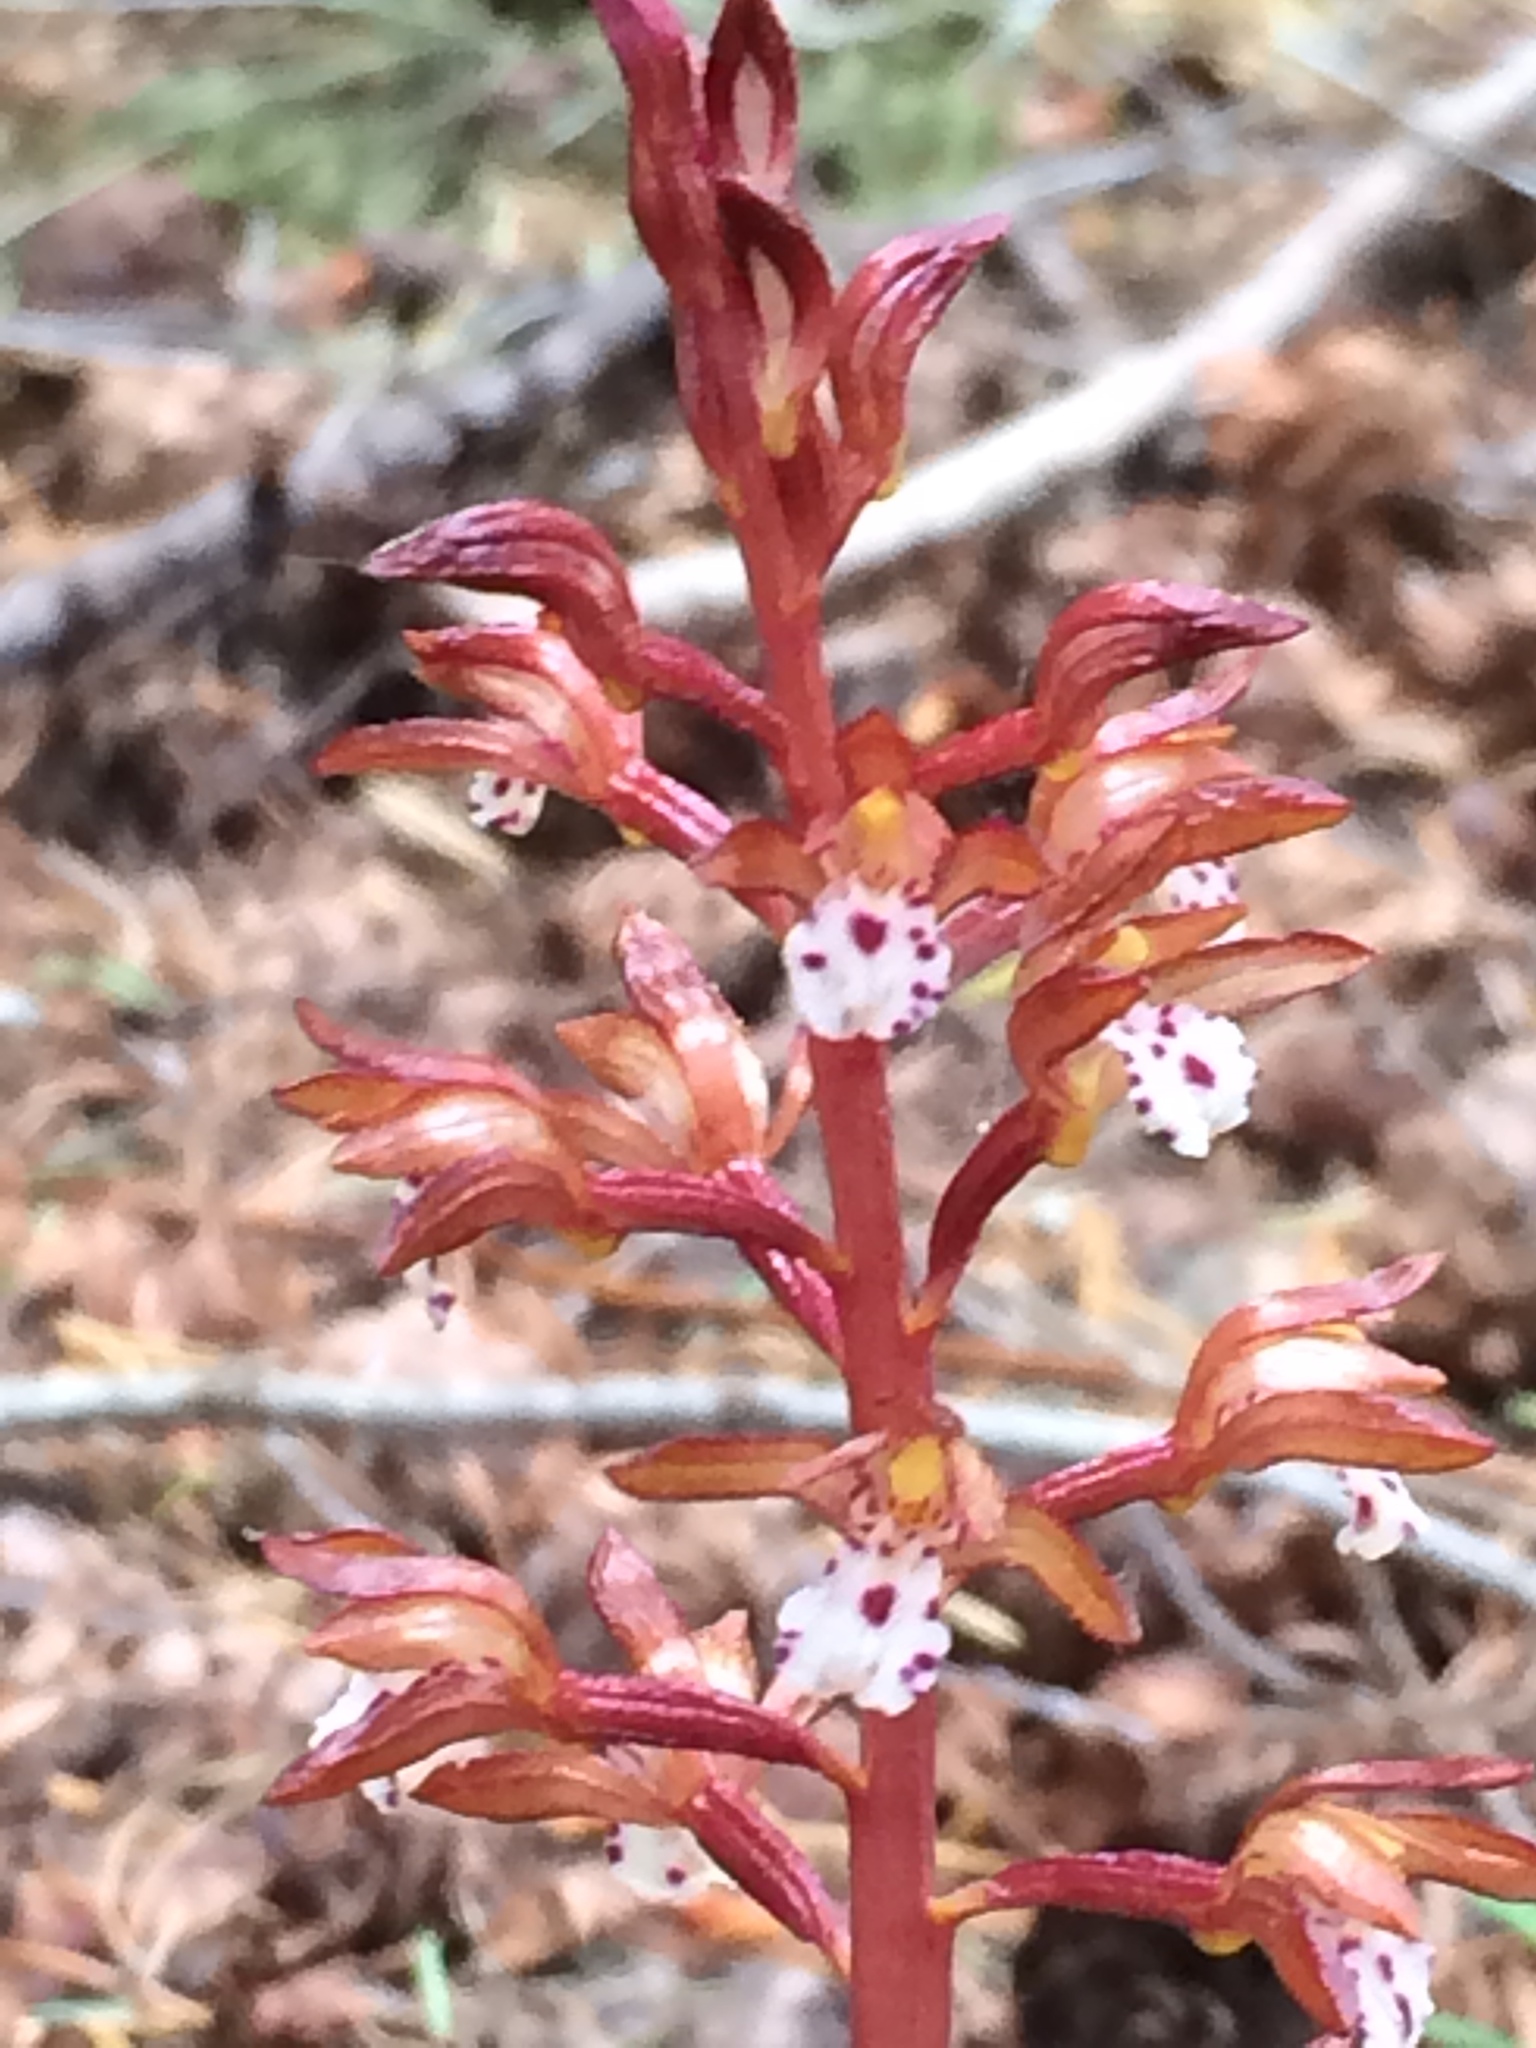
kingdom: Plantae
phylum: Tracheophyta
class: Liliopsida
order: Asparagales
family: Orchidaceae
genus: Corallorhiza
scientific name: Corallorhiza maculata
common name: Spotted coralroot
